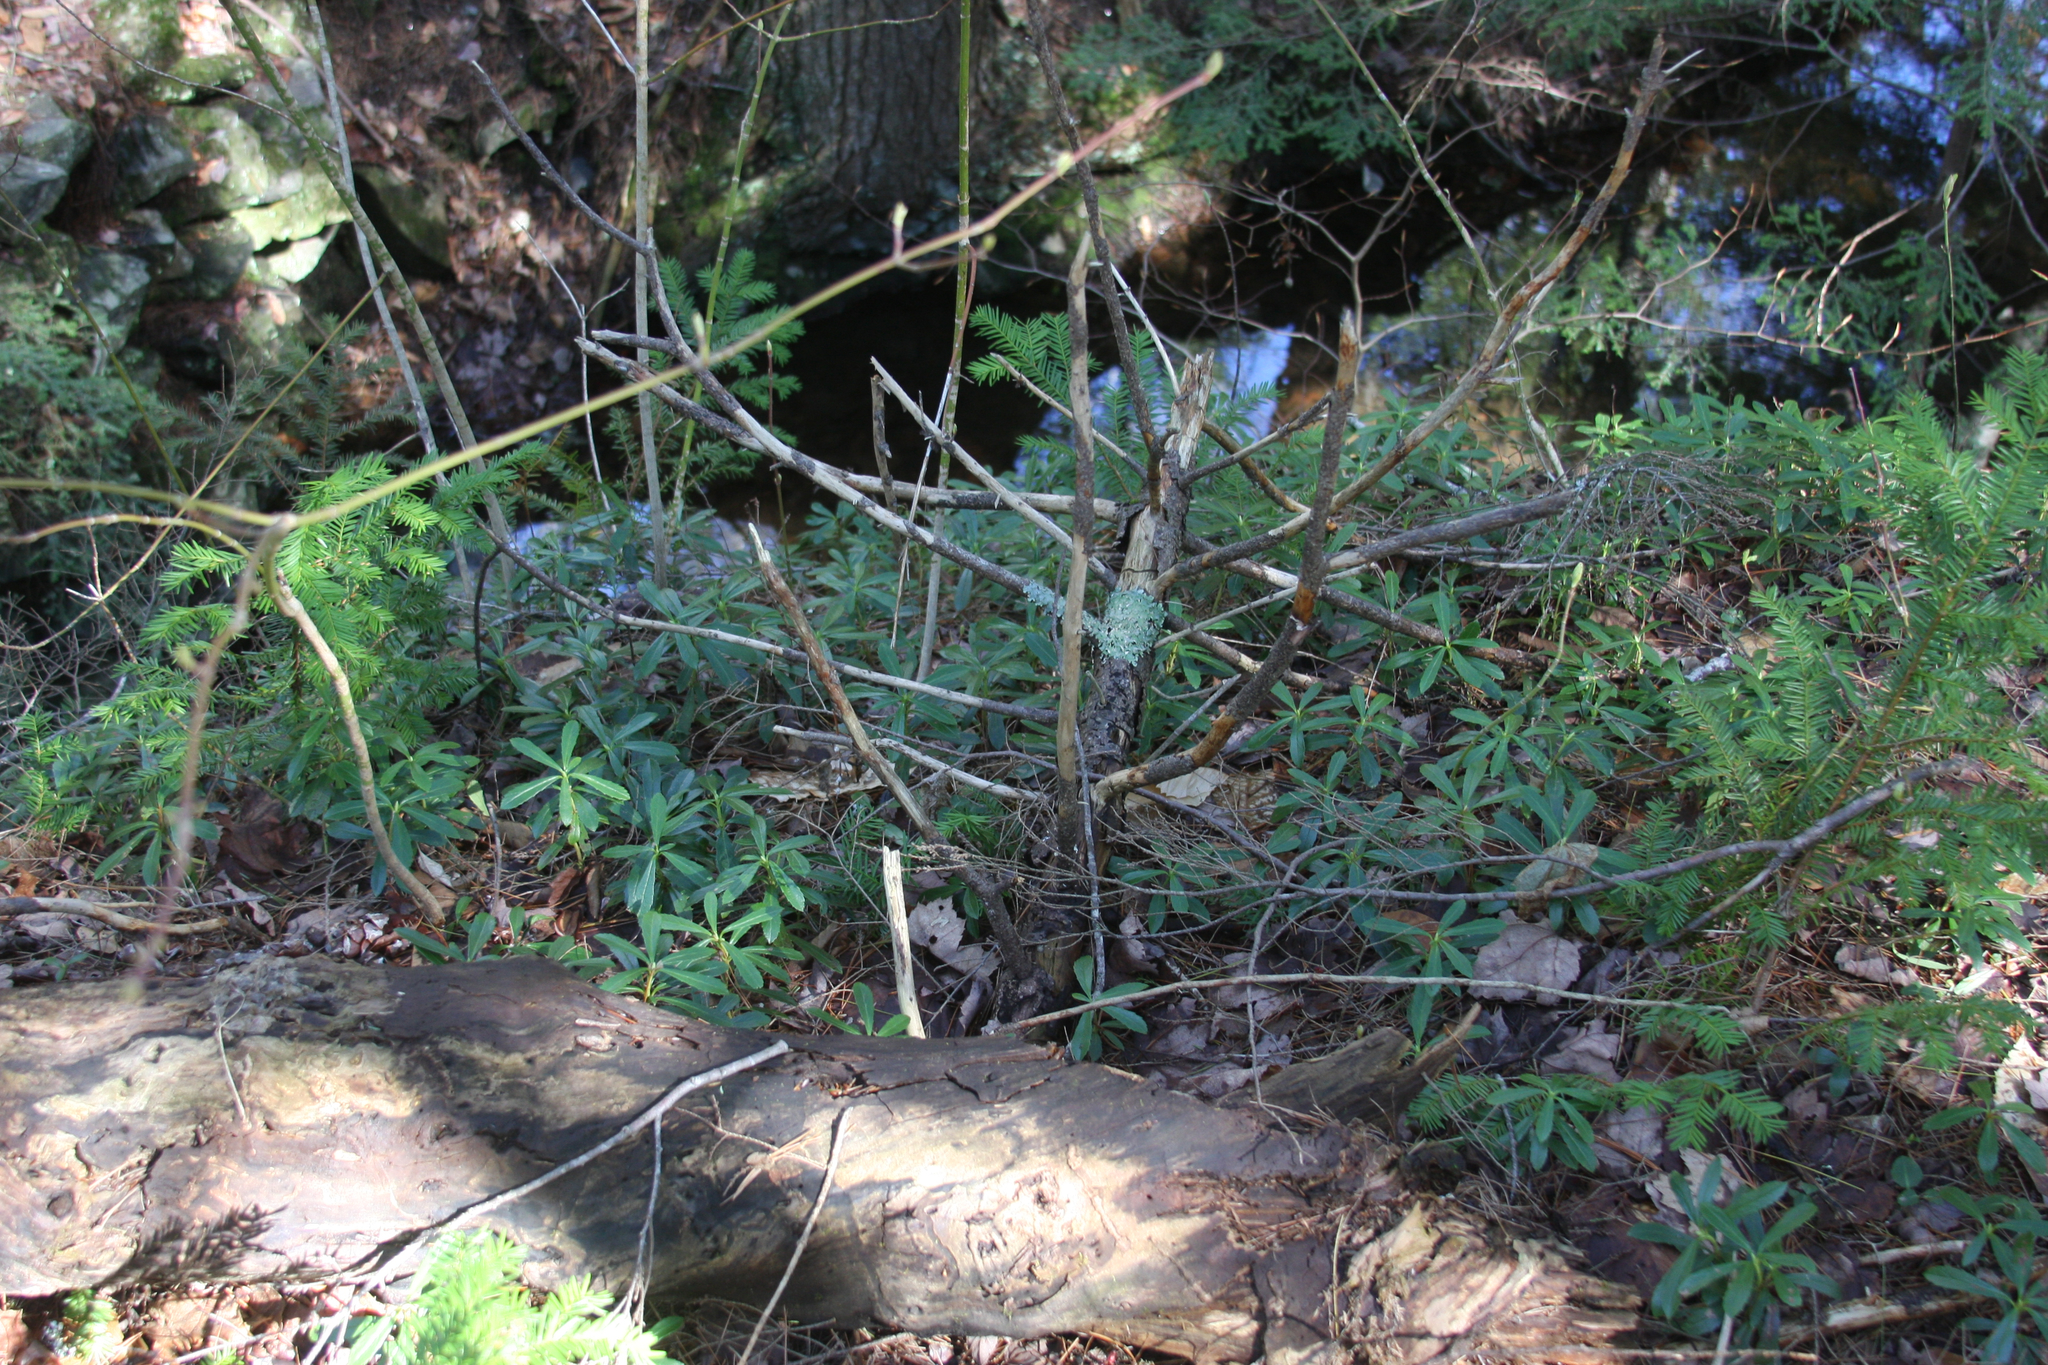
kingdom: Plantae
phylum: Tracheophyta
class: Magnoliopsida
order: Ericales
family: Ericaceae
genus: Chimaphila
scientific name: Chimaphila umbellata
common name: Pipsissewa
